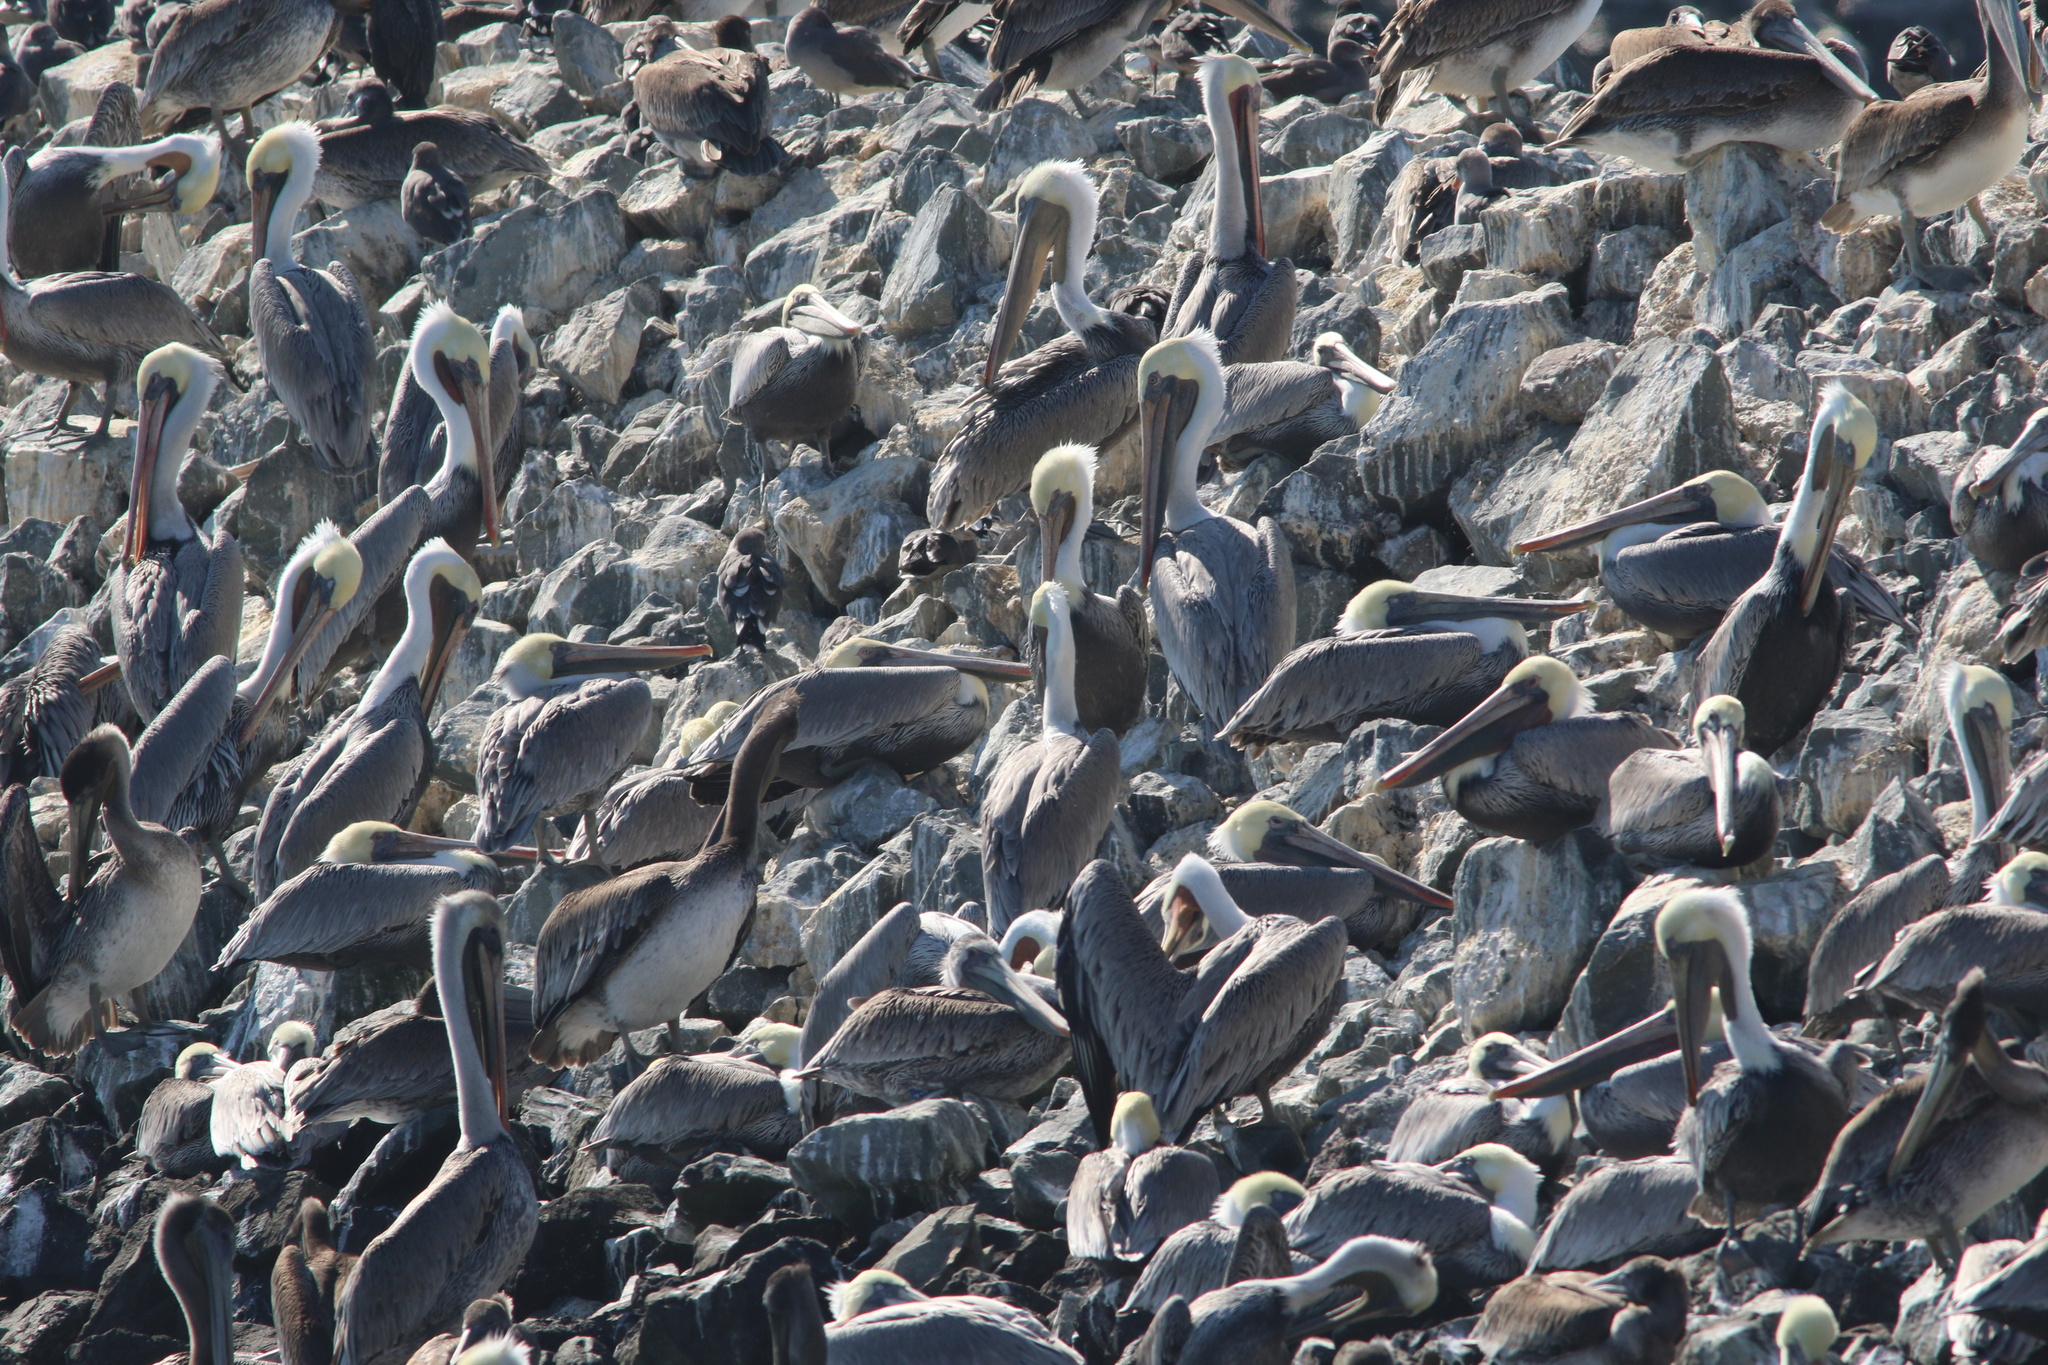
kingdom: Animalia
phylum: Chordata
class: Aves
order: Pelecaniformes
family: Pelecanidae
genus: Pelecanus
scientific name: Pelecanus occidentalis
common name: Brown pelican
